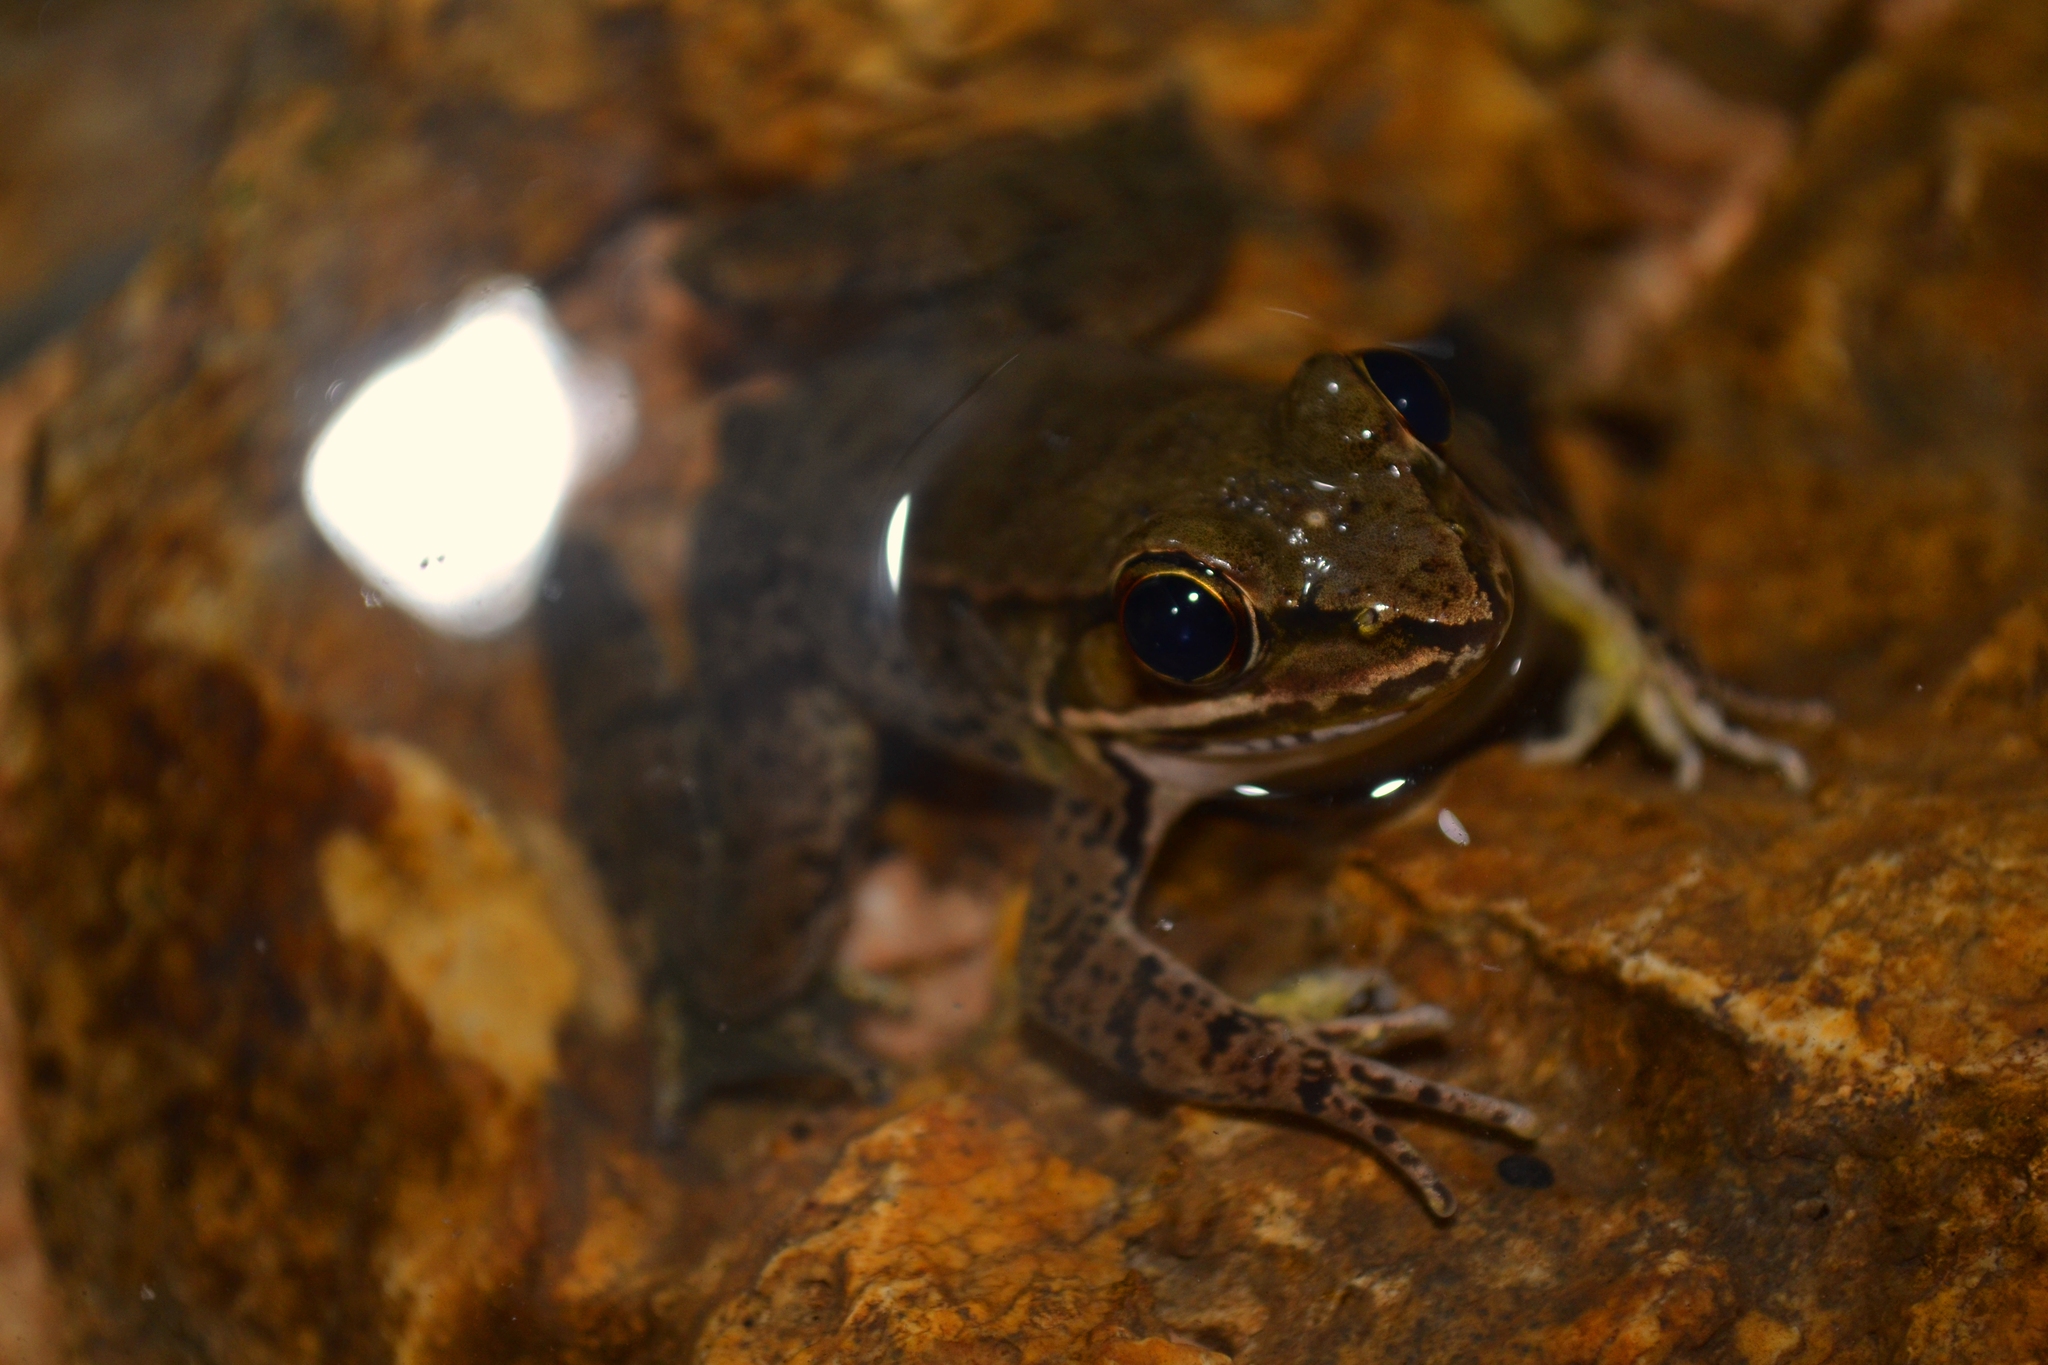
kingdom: Animalia
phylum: Chordata
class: Amphibia
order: Anura
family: Ranidae
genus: Lithobates
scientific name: Lithobates vaillanti
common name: Vaillant's frog
